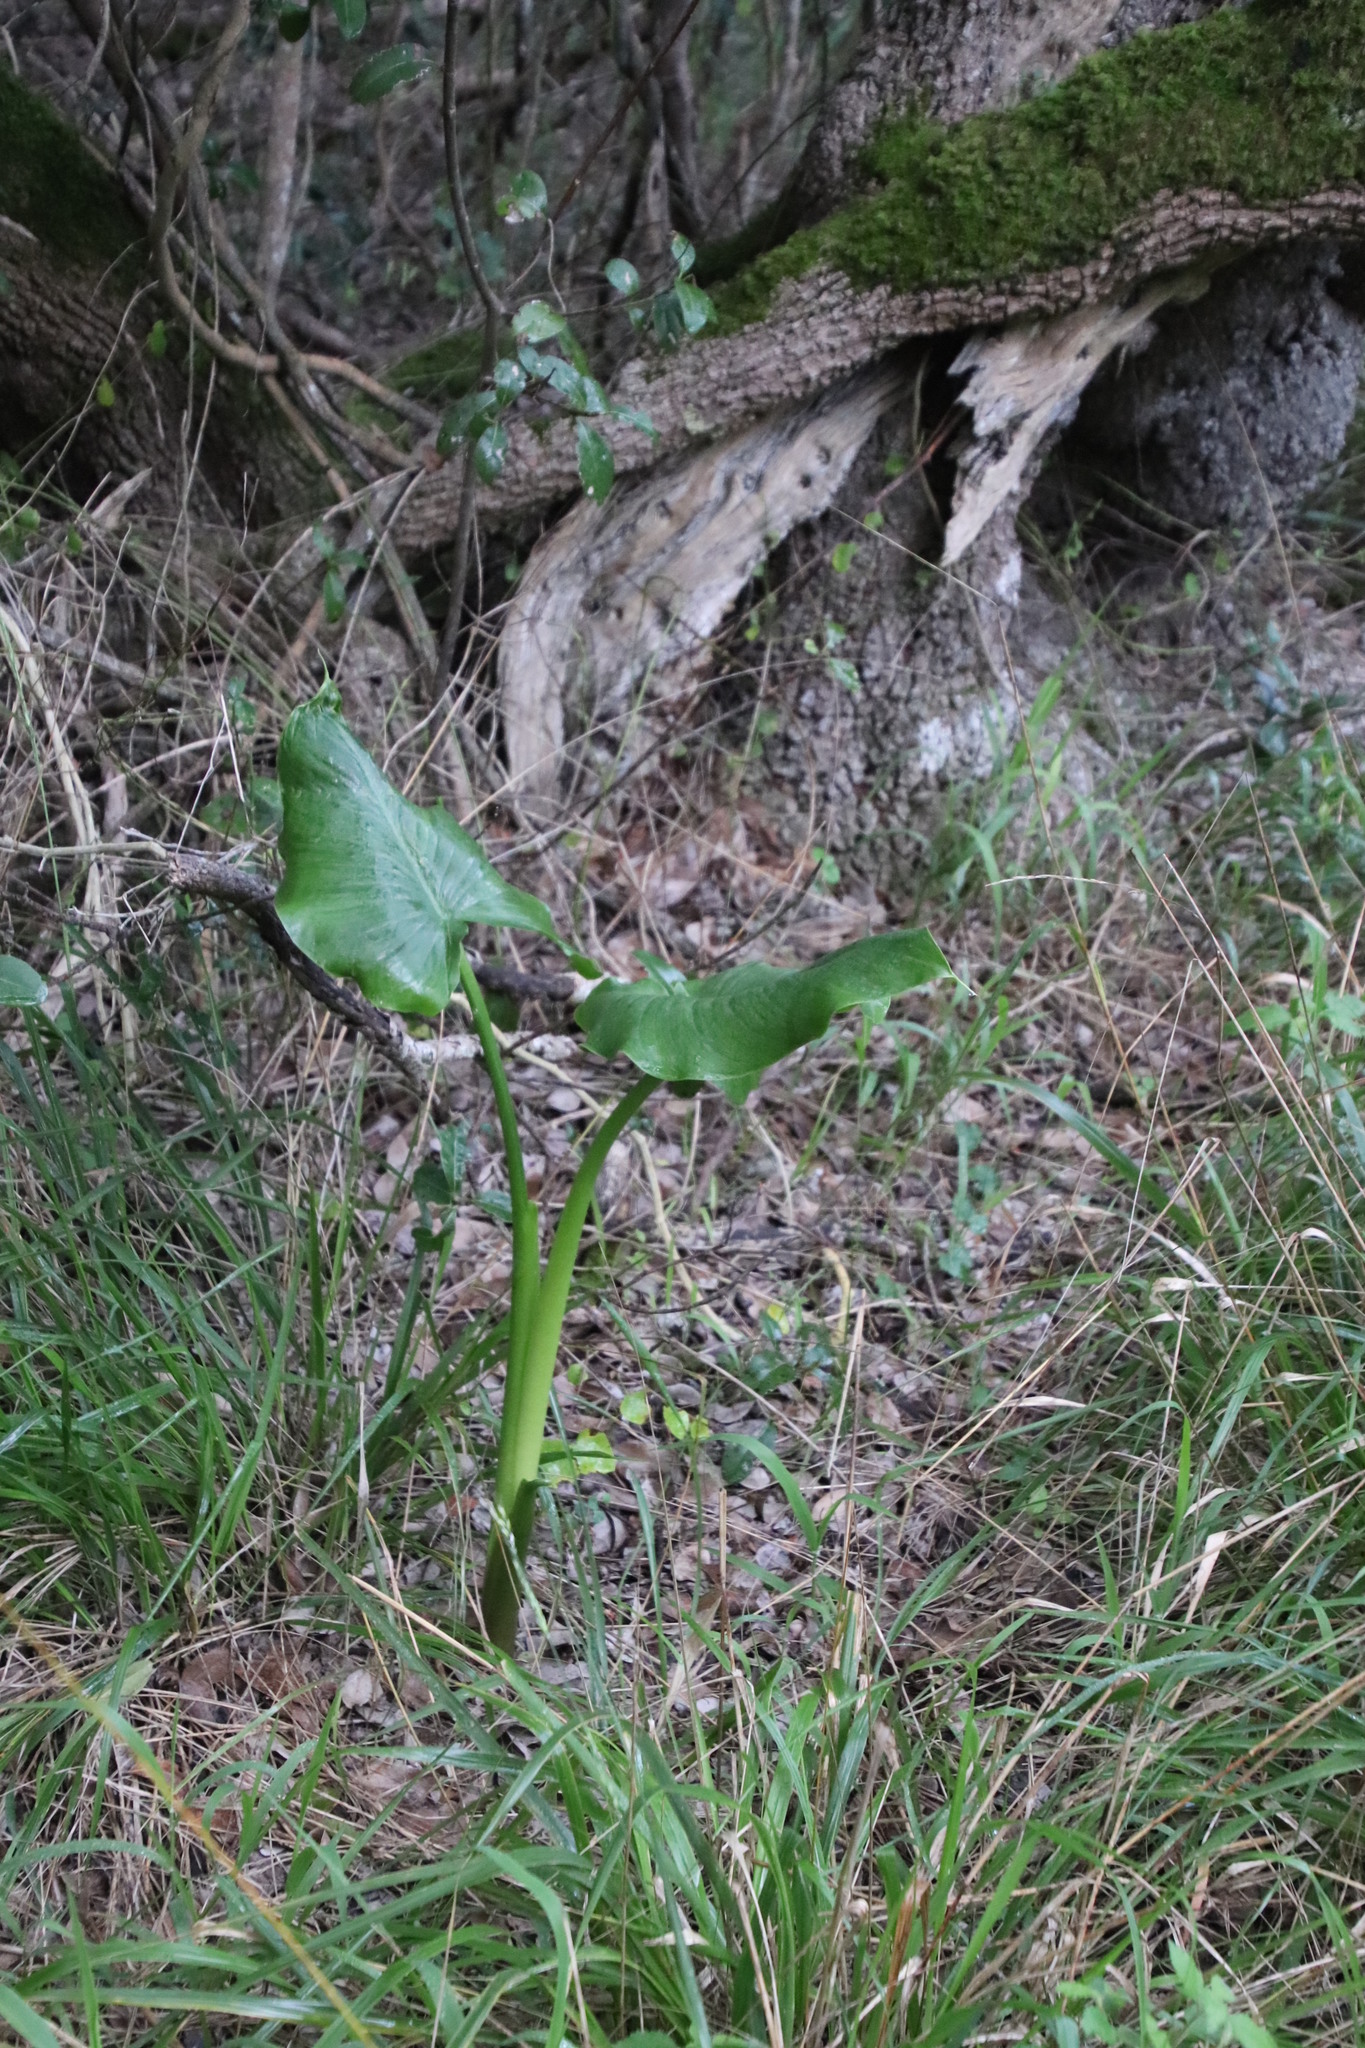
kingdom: Plantae
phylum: Tracheophyta
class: Liliopsida
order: Alismatales
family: Araceae
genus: Zantedeschia
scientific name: Zantedeschia aethiopica
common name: Altar-lily
